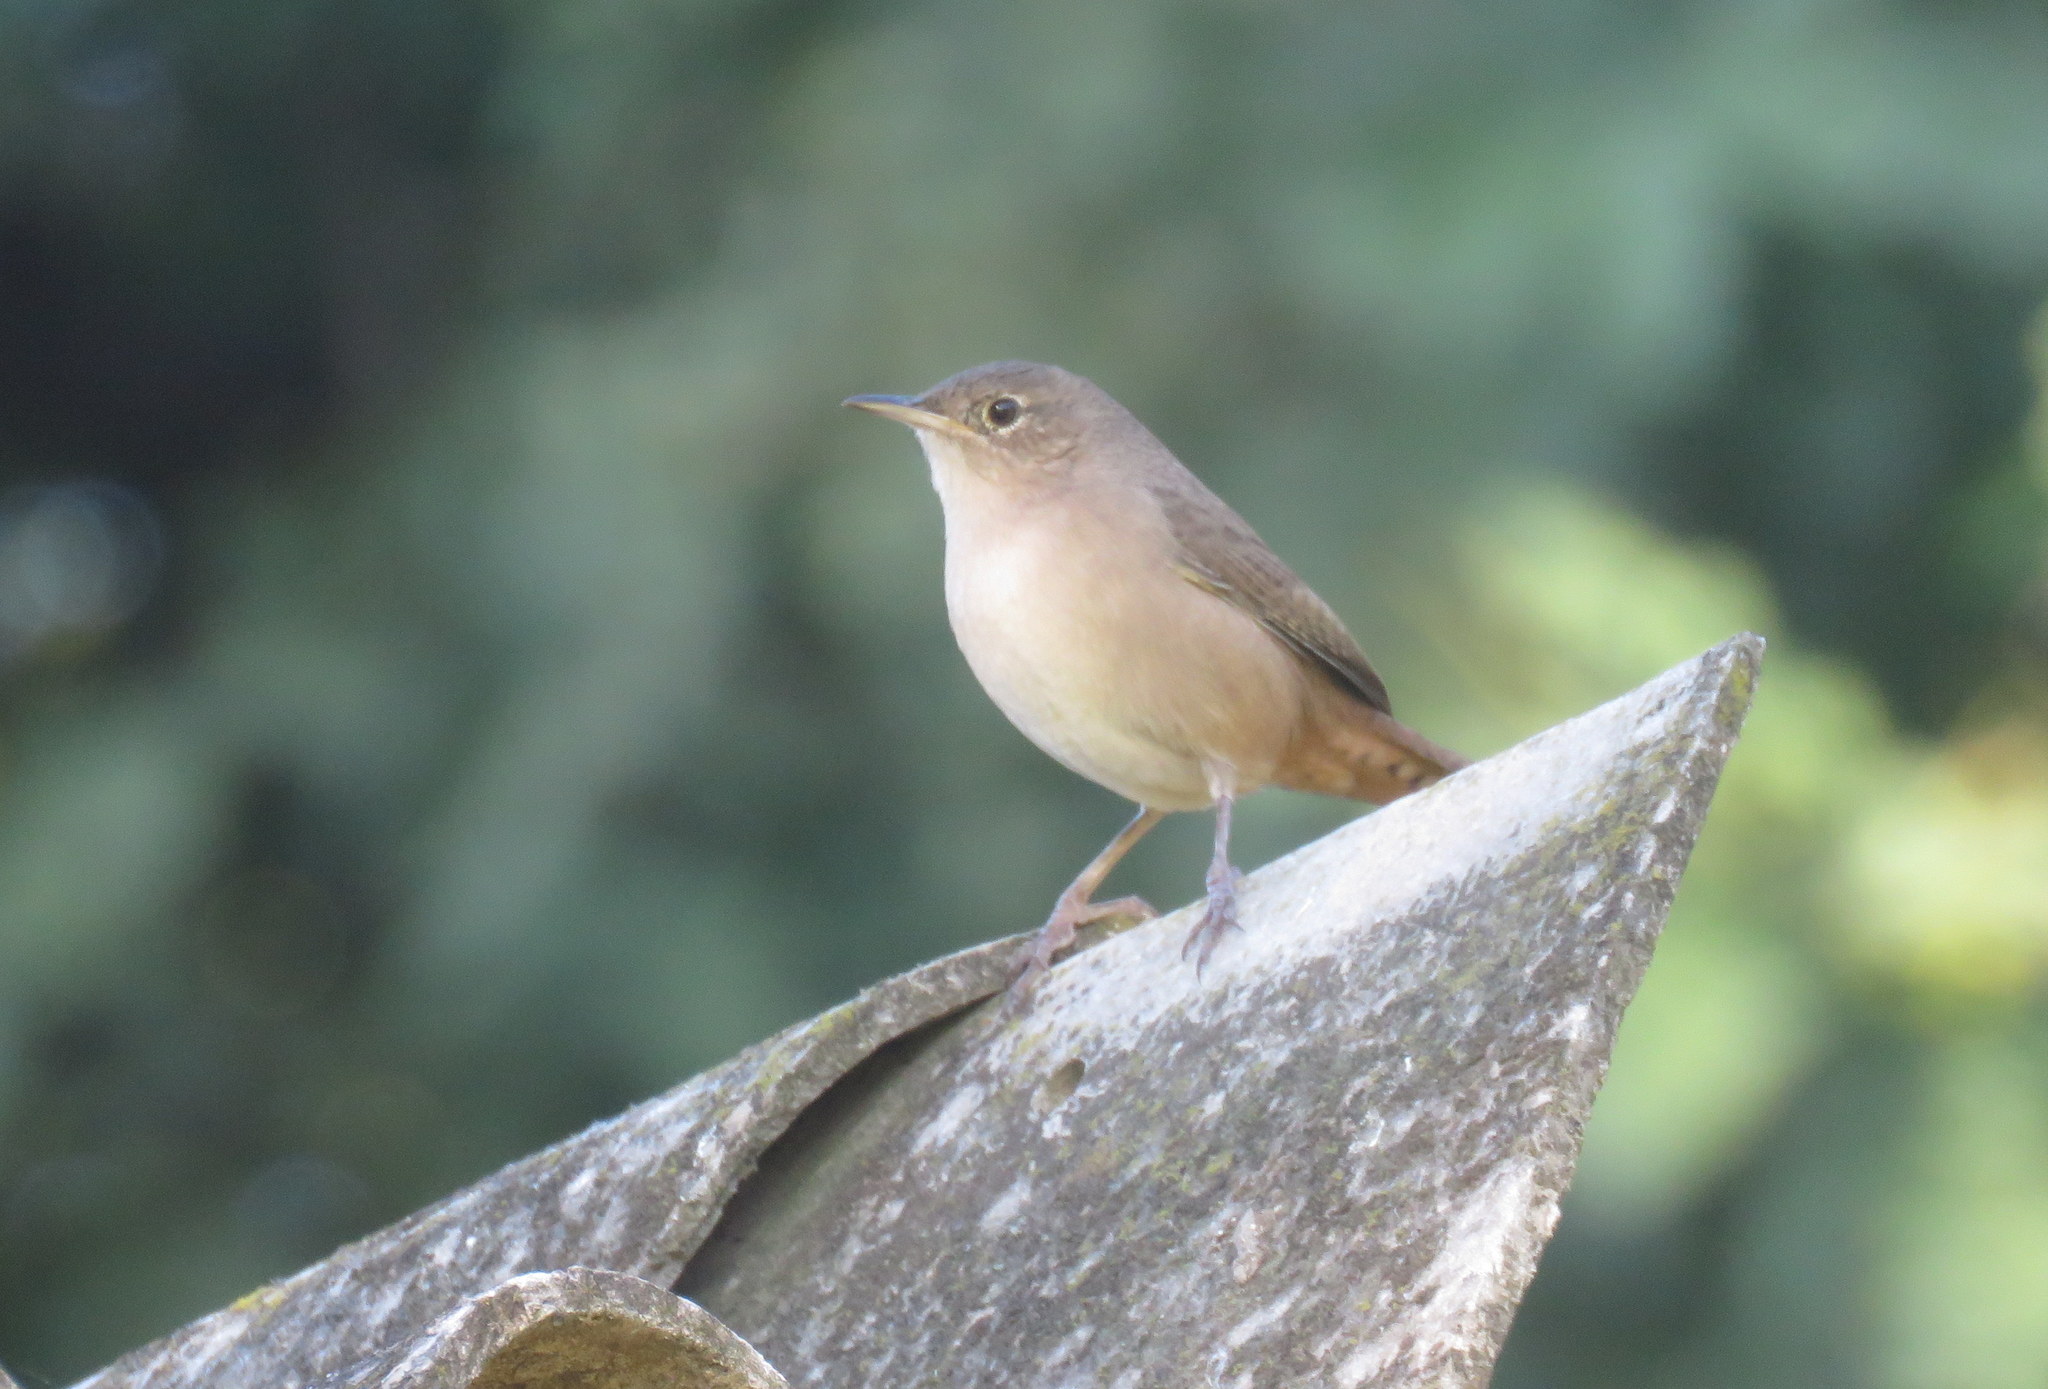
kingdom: Animalia
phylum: Chordata
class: Aves
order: Passeriformes
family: Troglodytidae
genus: Troglodytes
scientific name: Troglodytes aedon
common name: House wren
